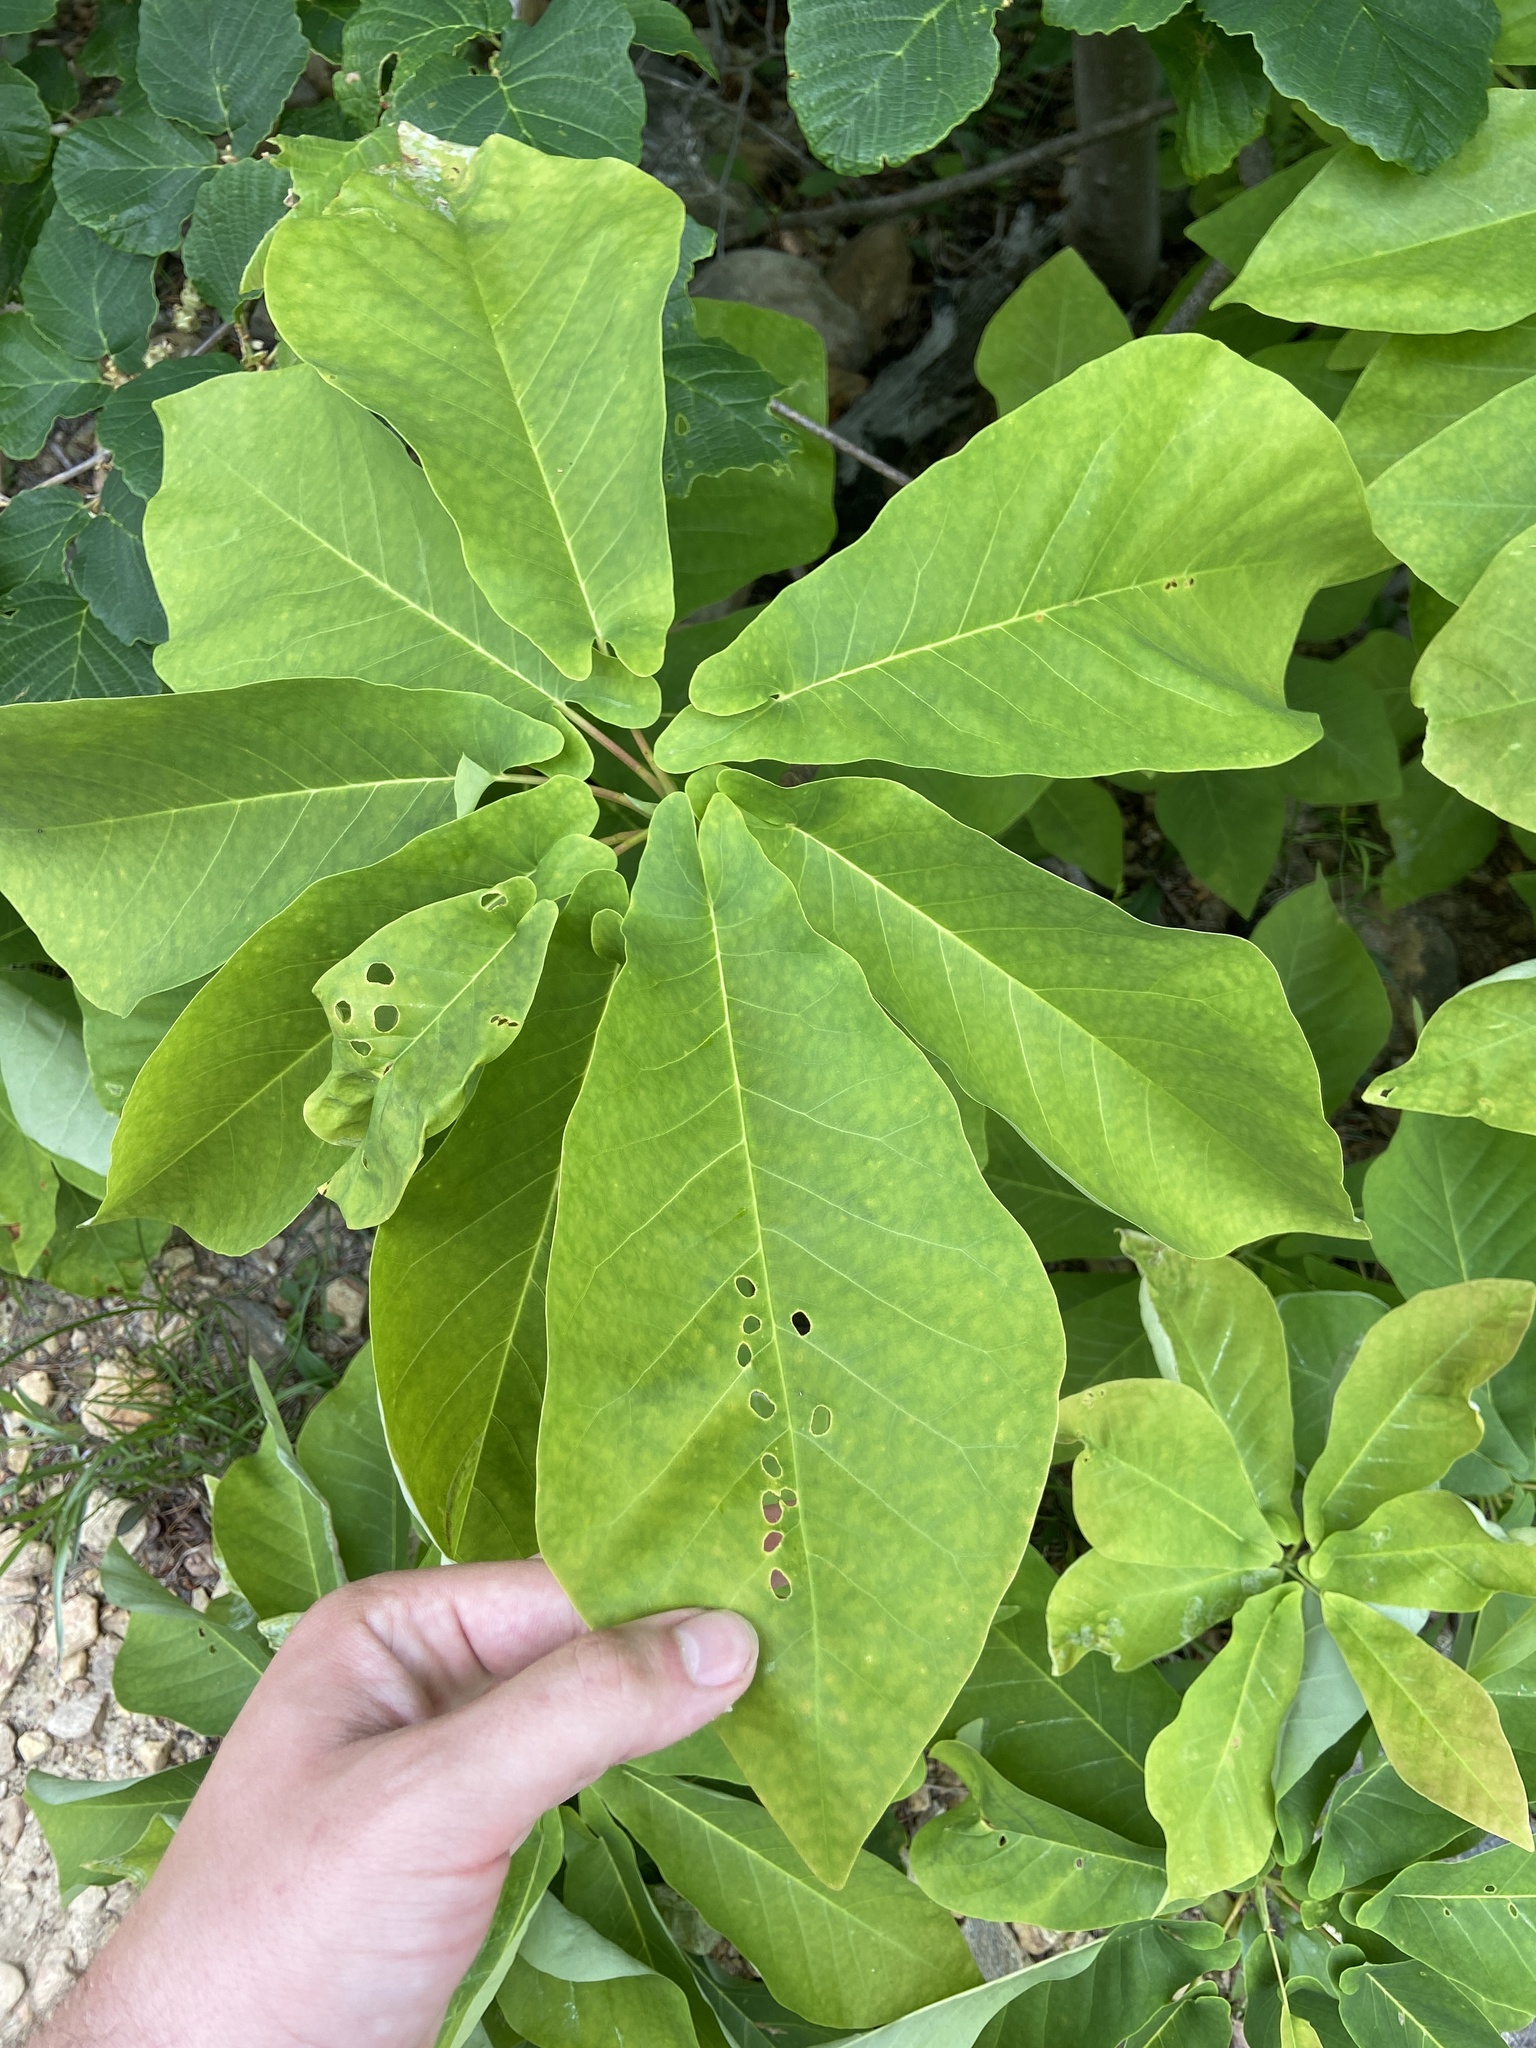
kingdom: Plantae
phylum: Tracheophyta
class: Magnoliopsida
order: Magnoliales
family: Magnoliaceae
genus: Magnolia
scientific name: Magnolia fraseri
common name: Fraser's magnolia
